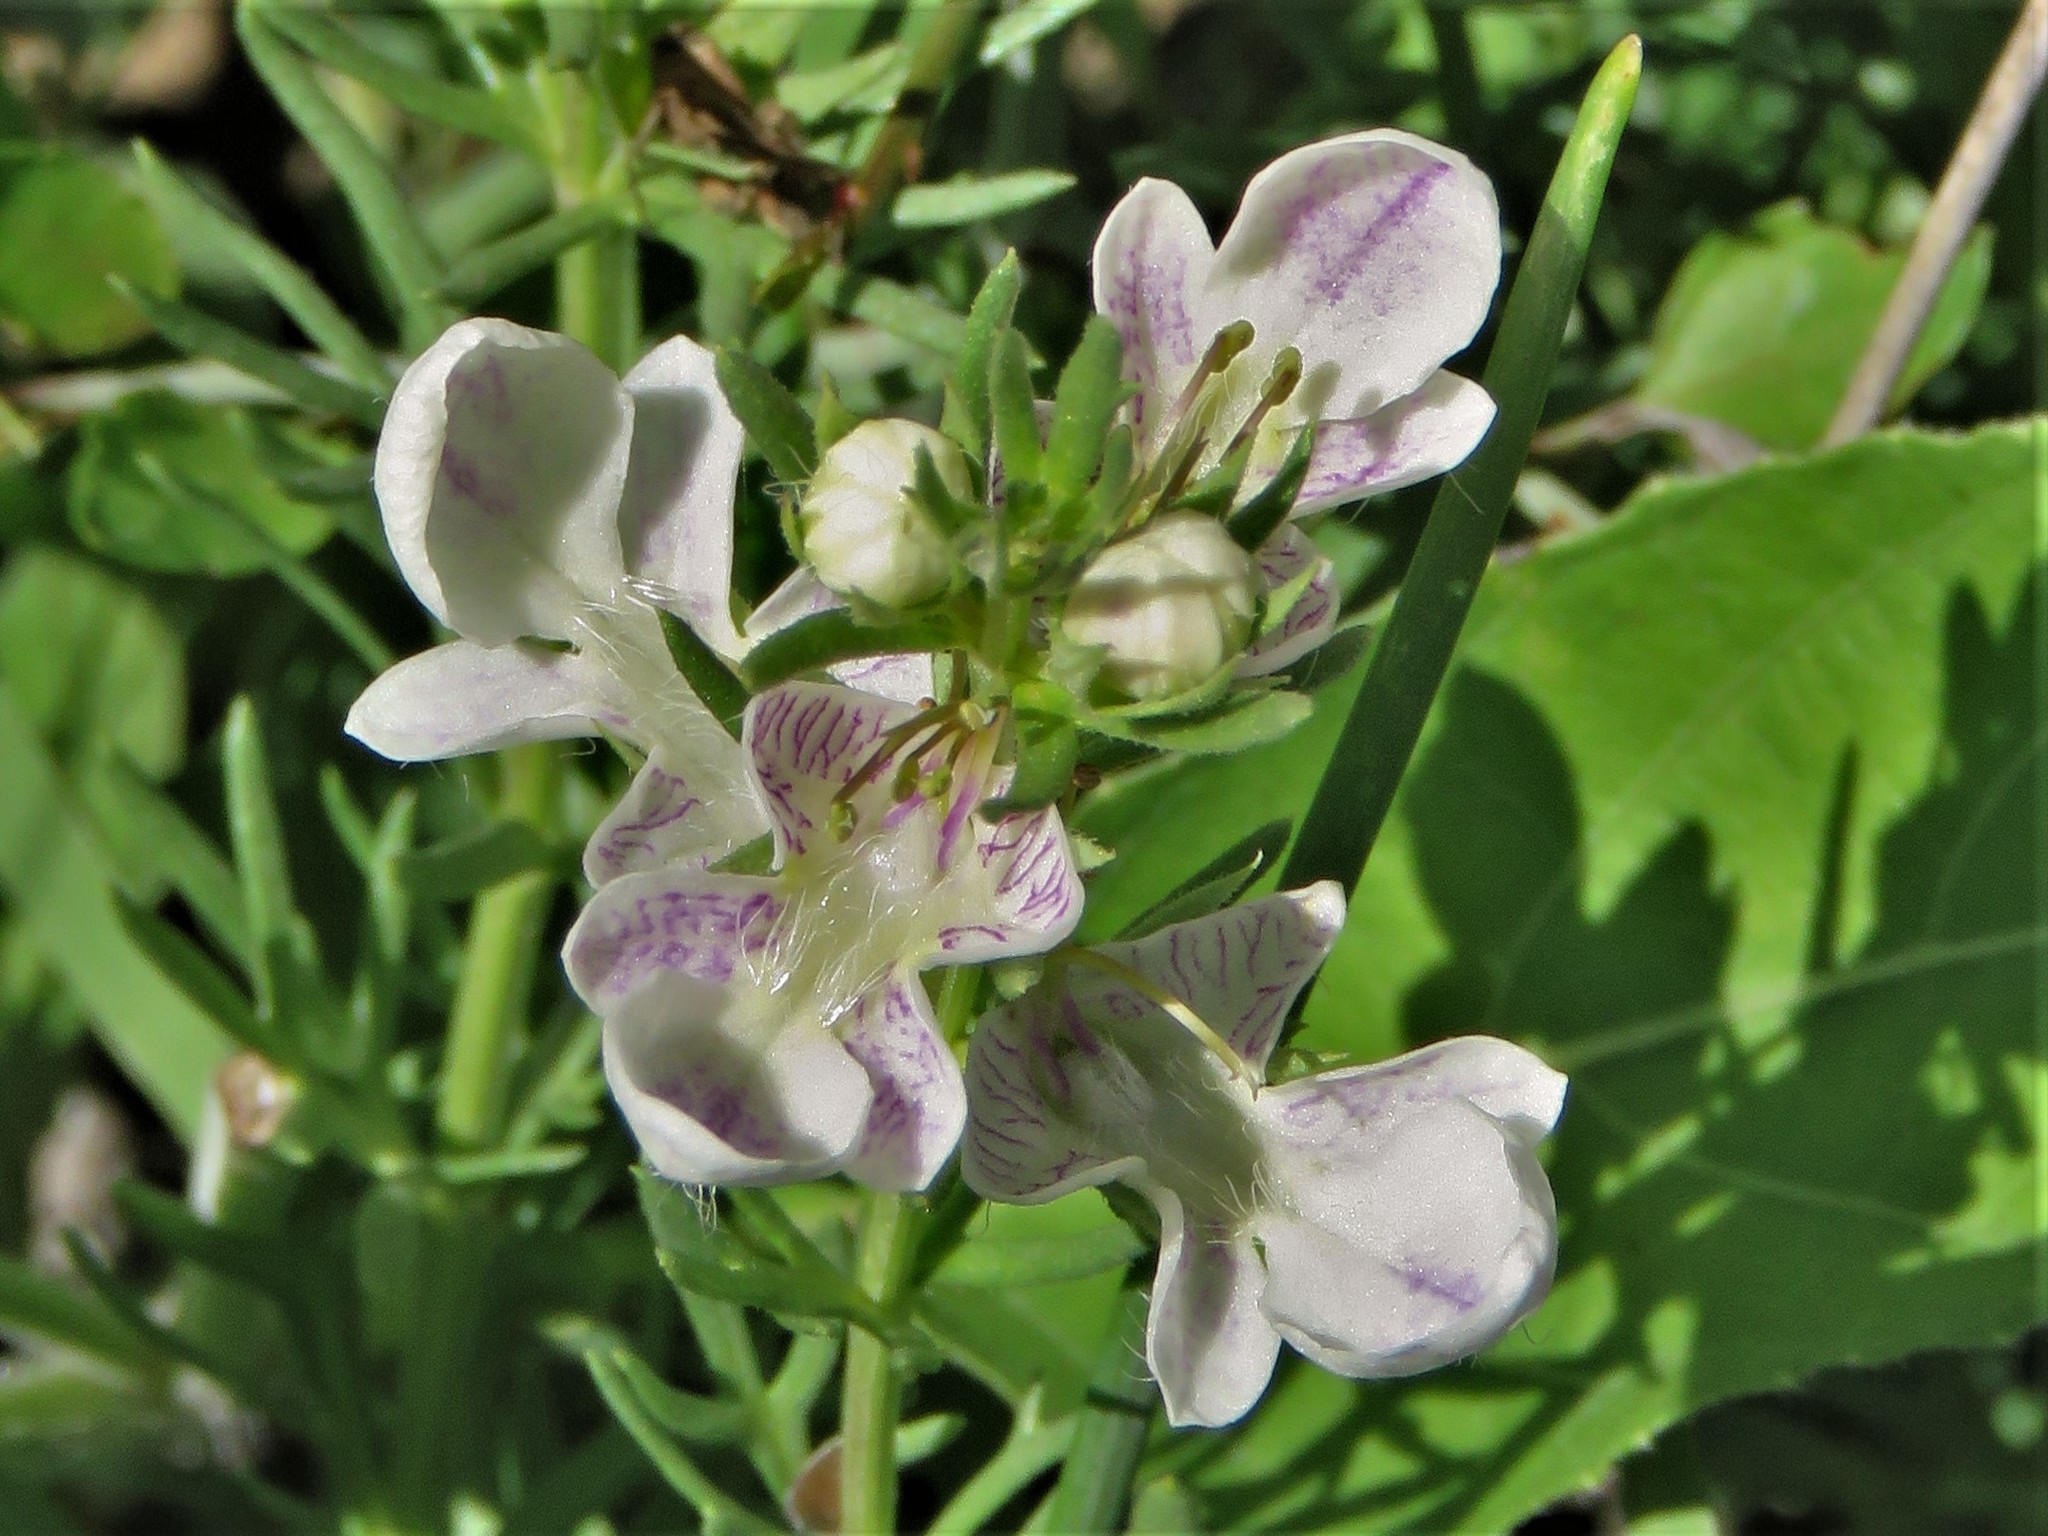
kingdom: Plantae
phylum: Tracheophyta
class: Magnoliopsida
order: Lamiales
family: Lamiaceae
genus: Teucrium
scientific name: Teucrium laciniatum
